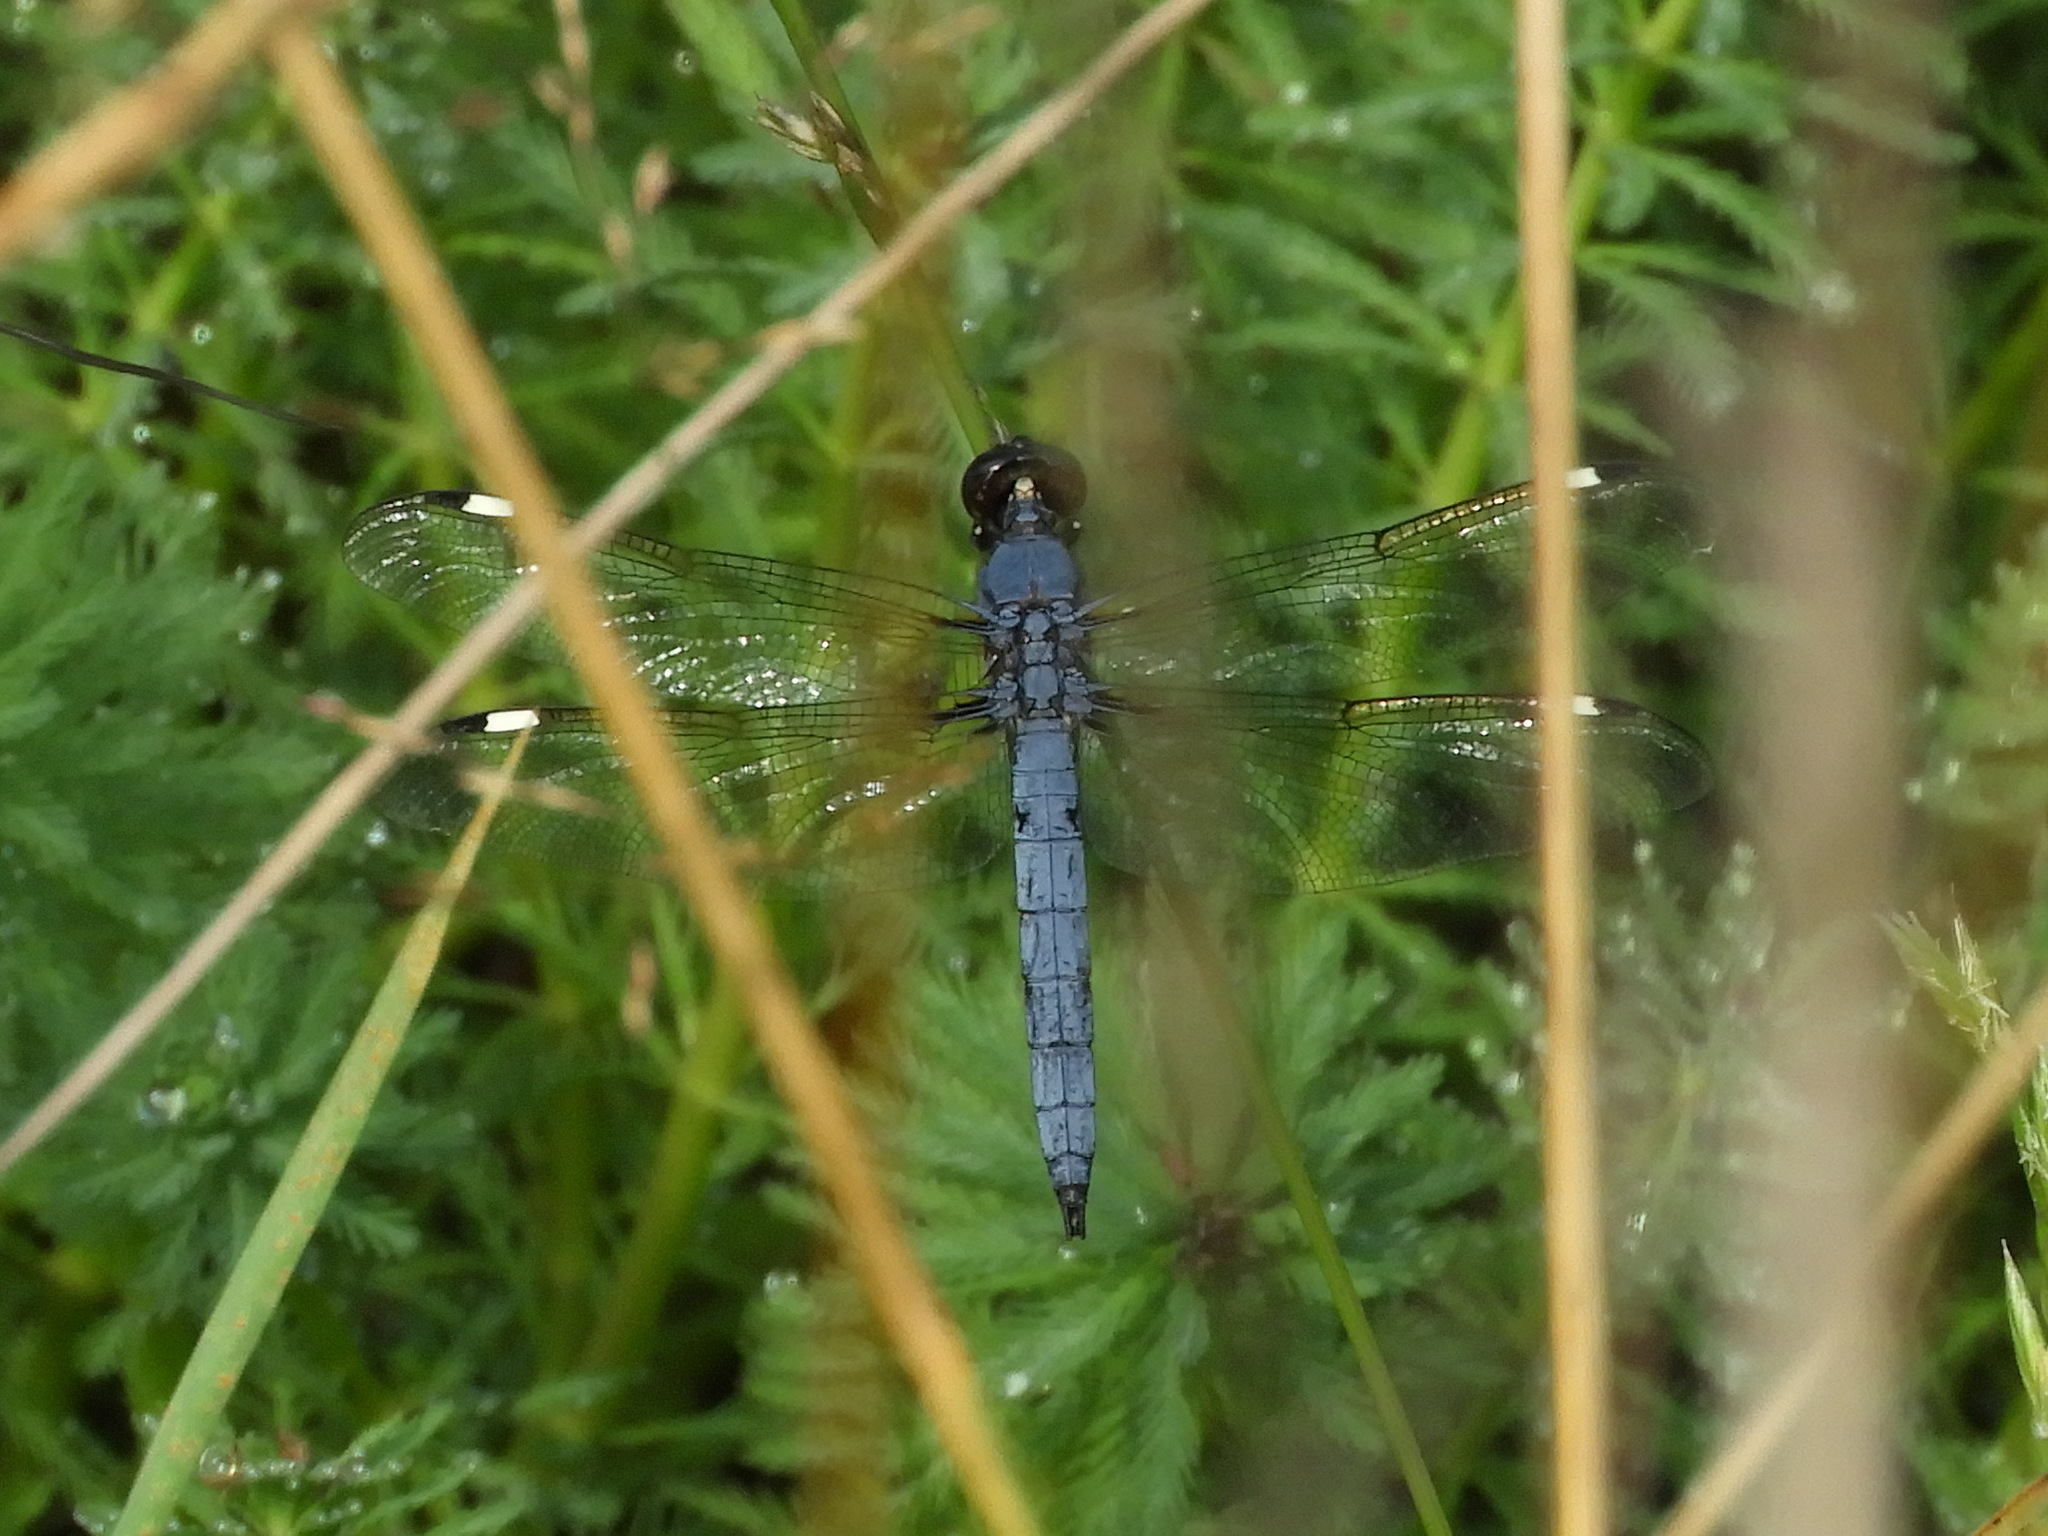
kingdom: Animalia
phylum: Arthropoda
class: Insecta
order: Odonata
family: Libellulidae
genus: Libellula
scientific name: Libellula cyanea
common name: Spangled skimmer
